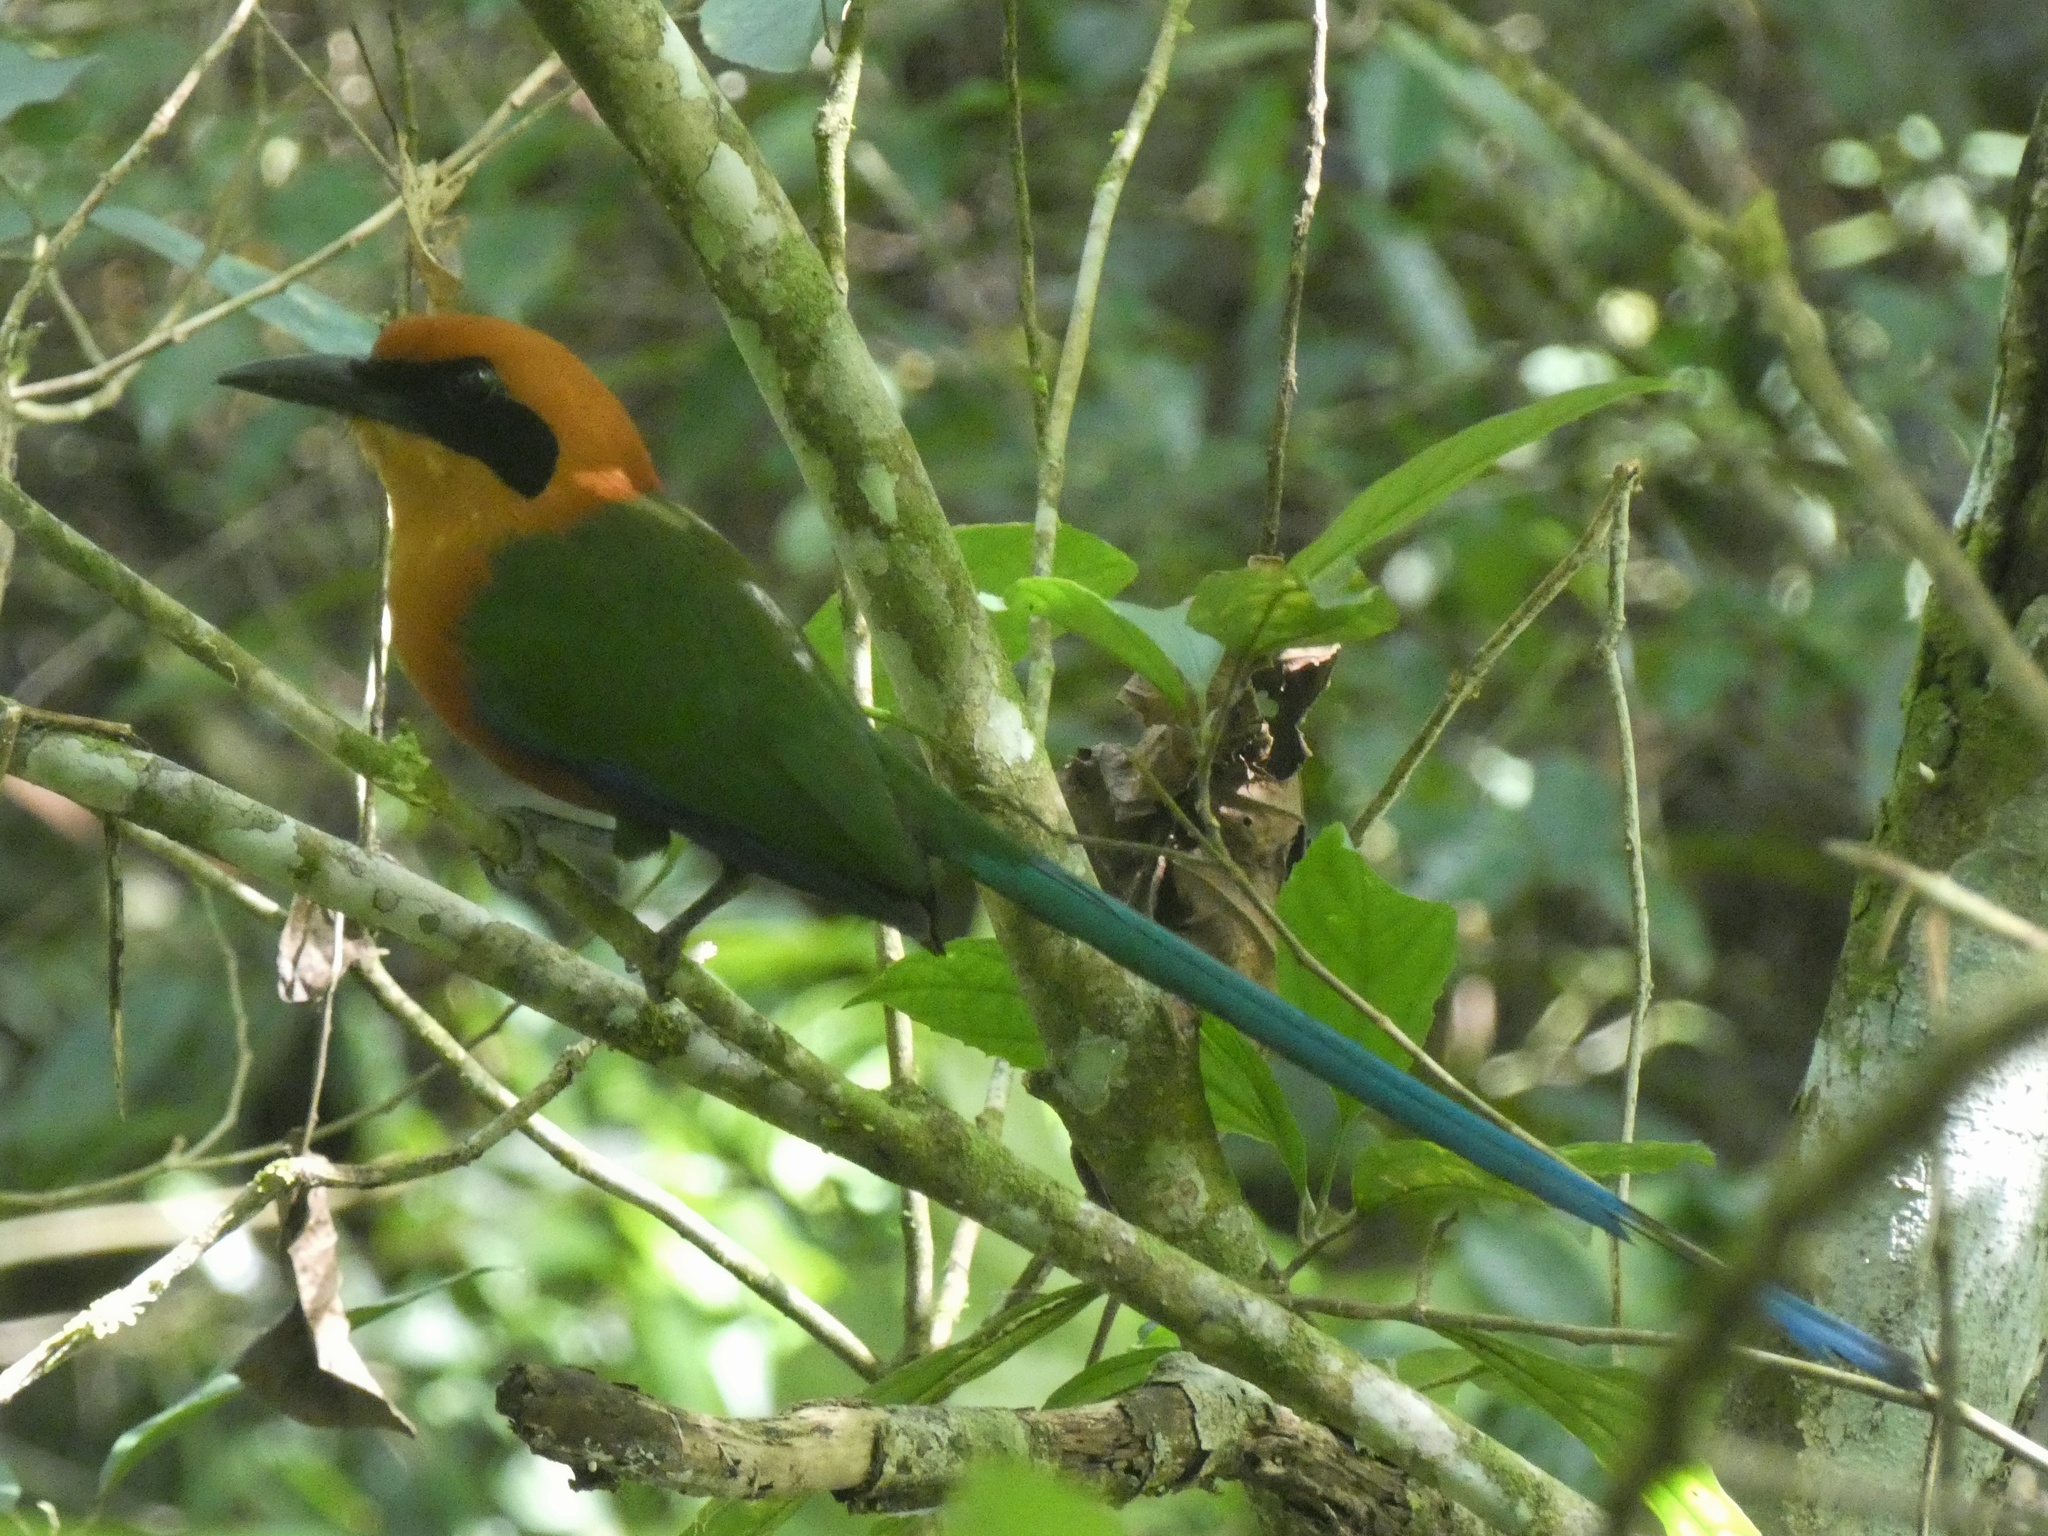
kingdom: Animalia
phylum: Chordata
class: Aves
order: Coraciiformes
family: Momotidae
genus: Baryphthengus
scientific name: Baryphthengus martii
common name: Rufous motmot
